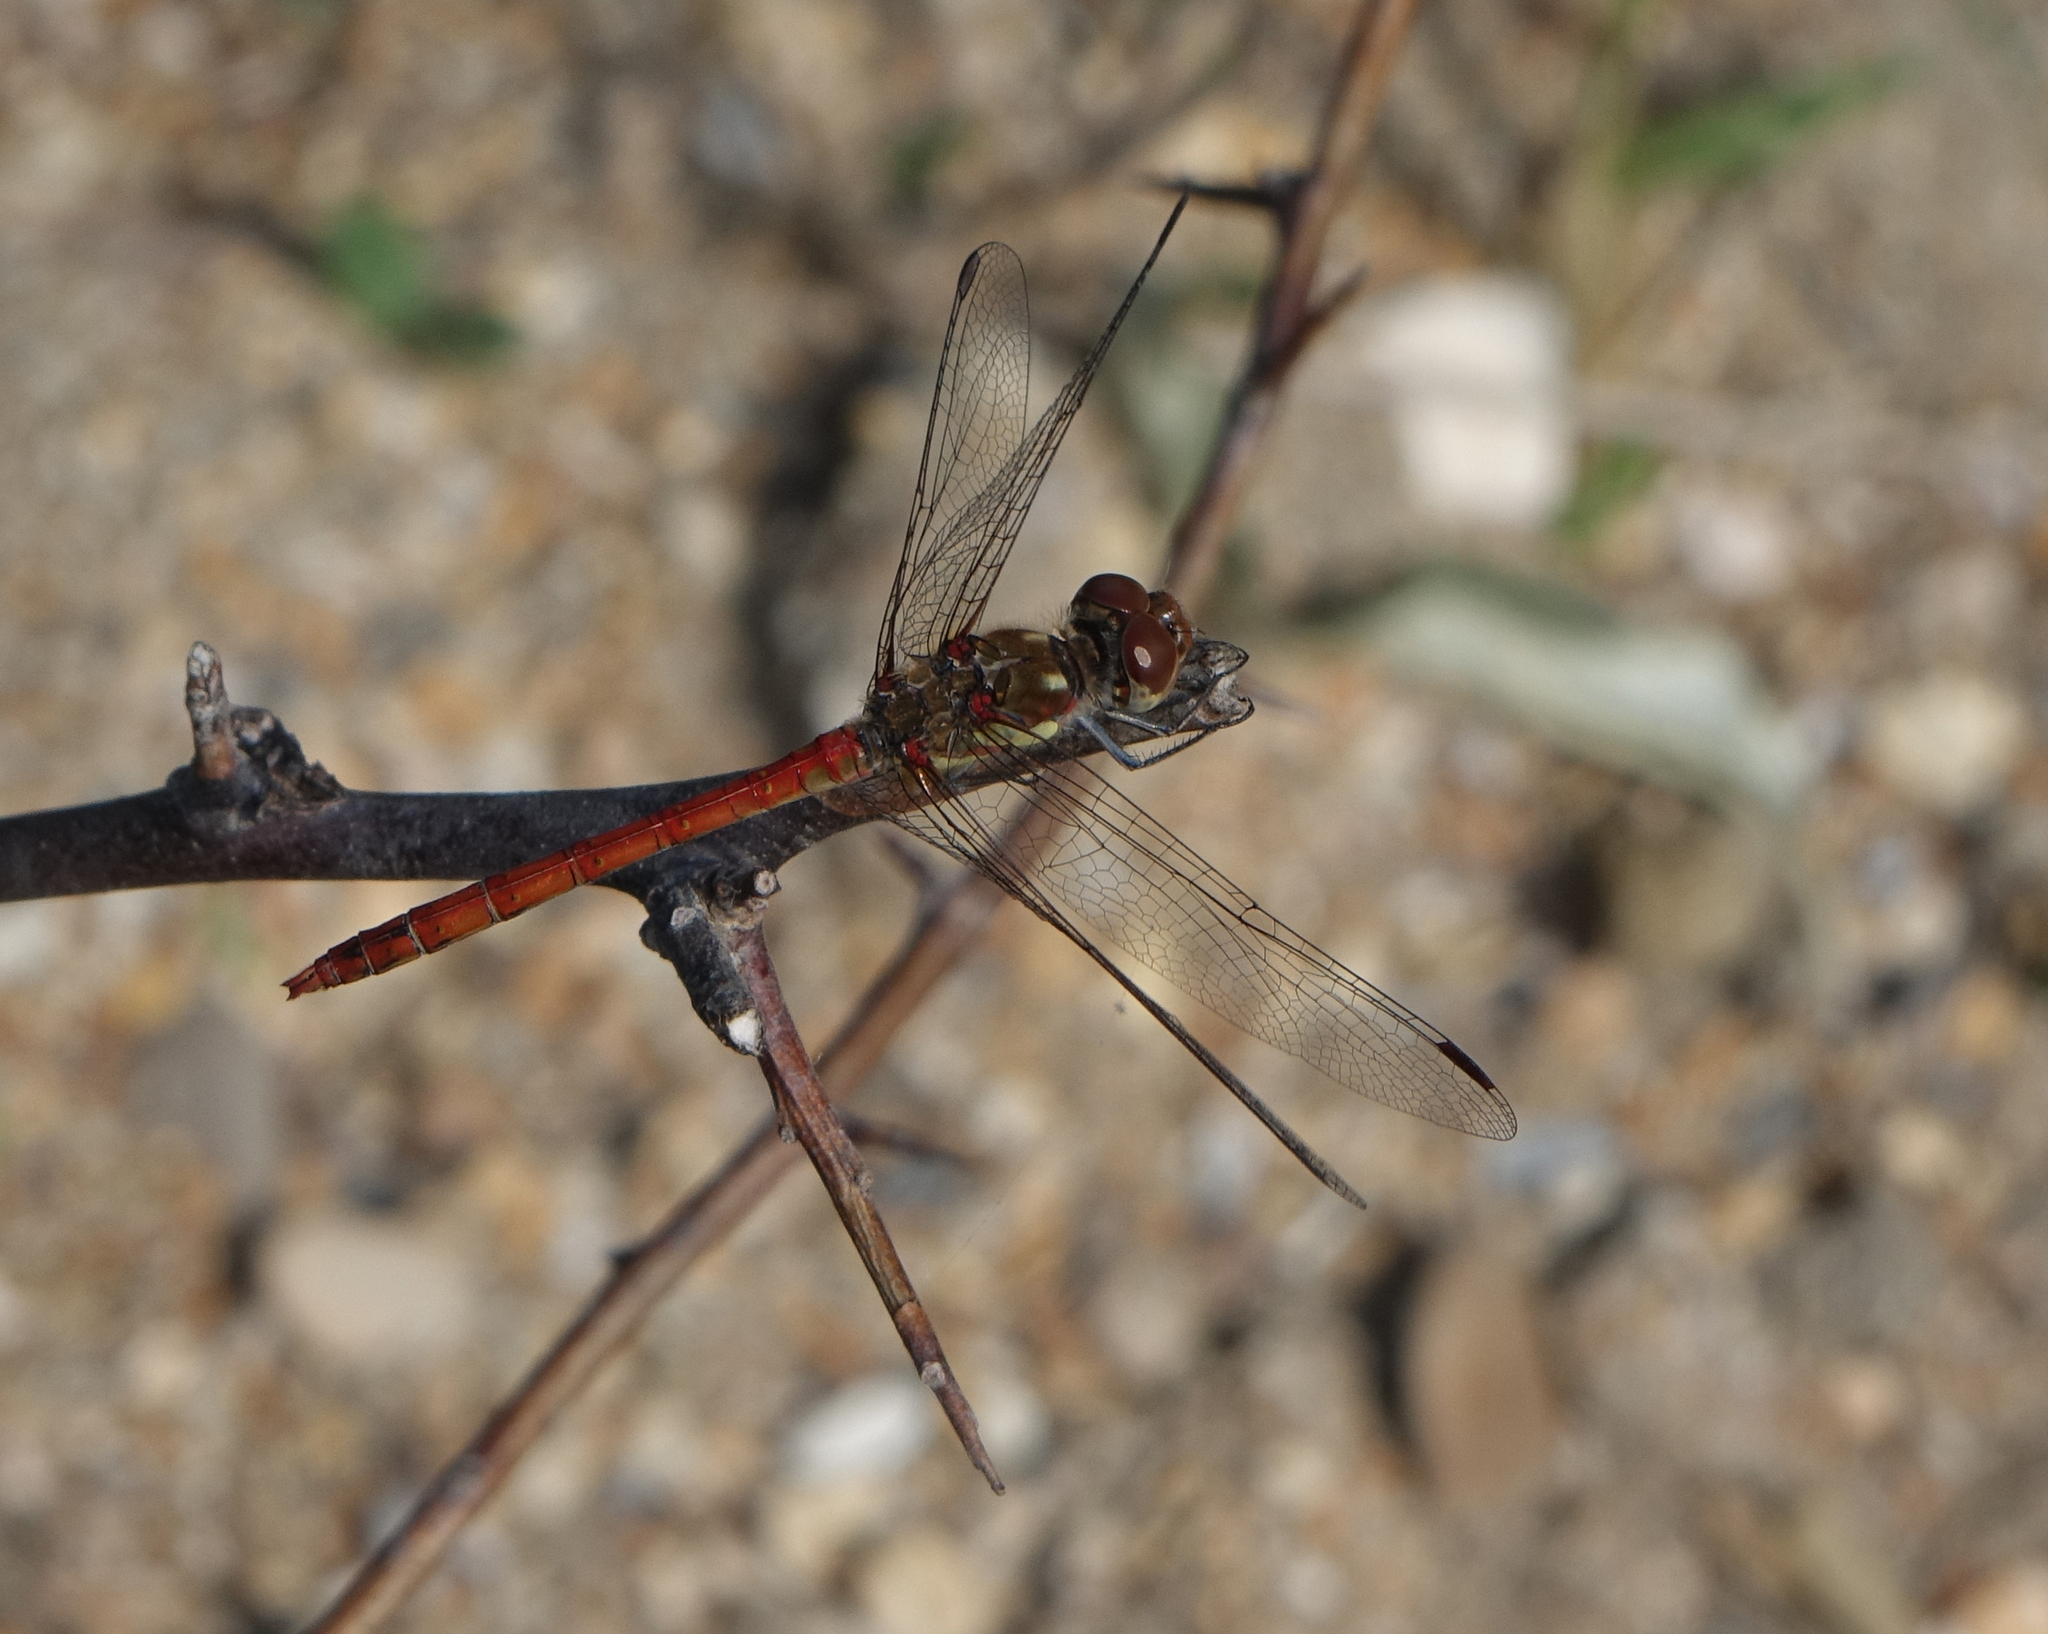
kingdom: Animalia
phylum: Arthropoda
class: Insecta
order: Odonata
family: Libellulidae
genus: Sympetrum
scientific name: Sympetrum striolatum
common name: Common darter
